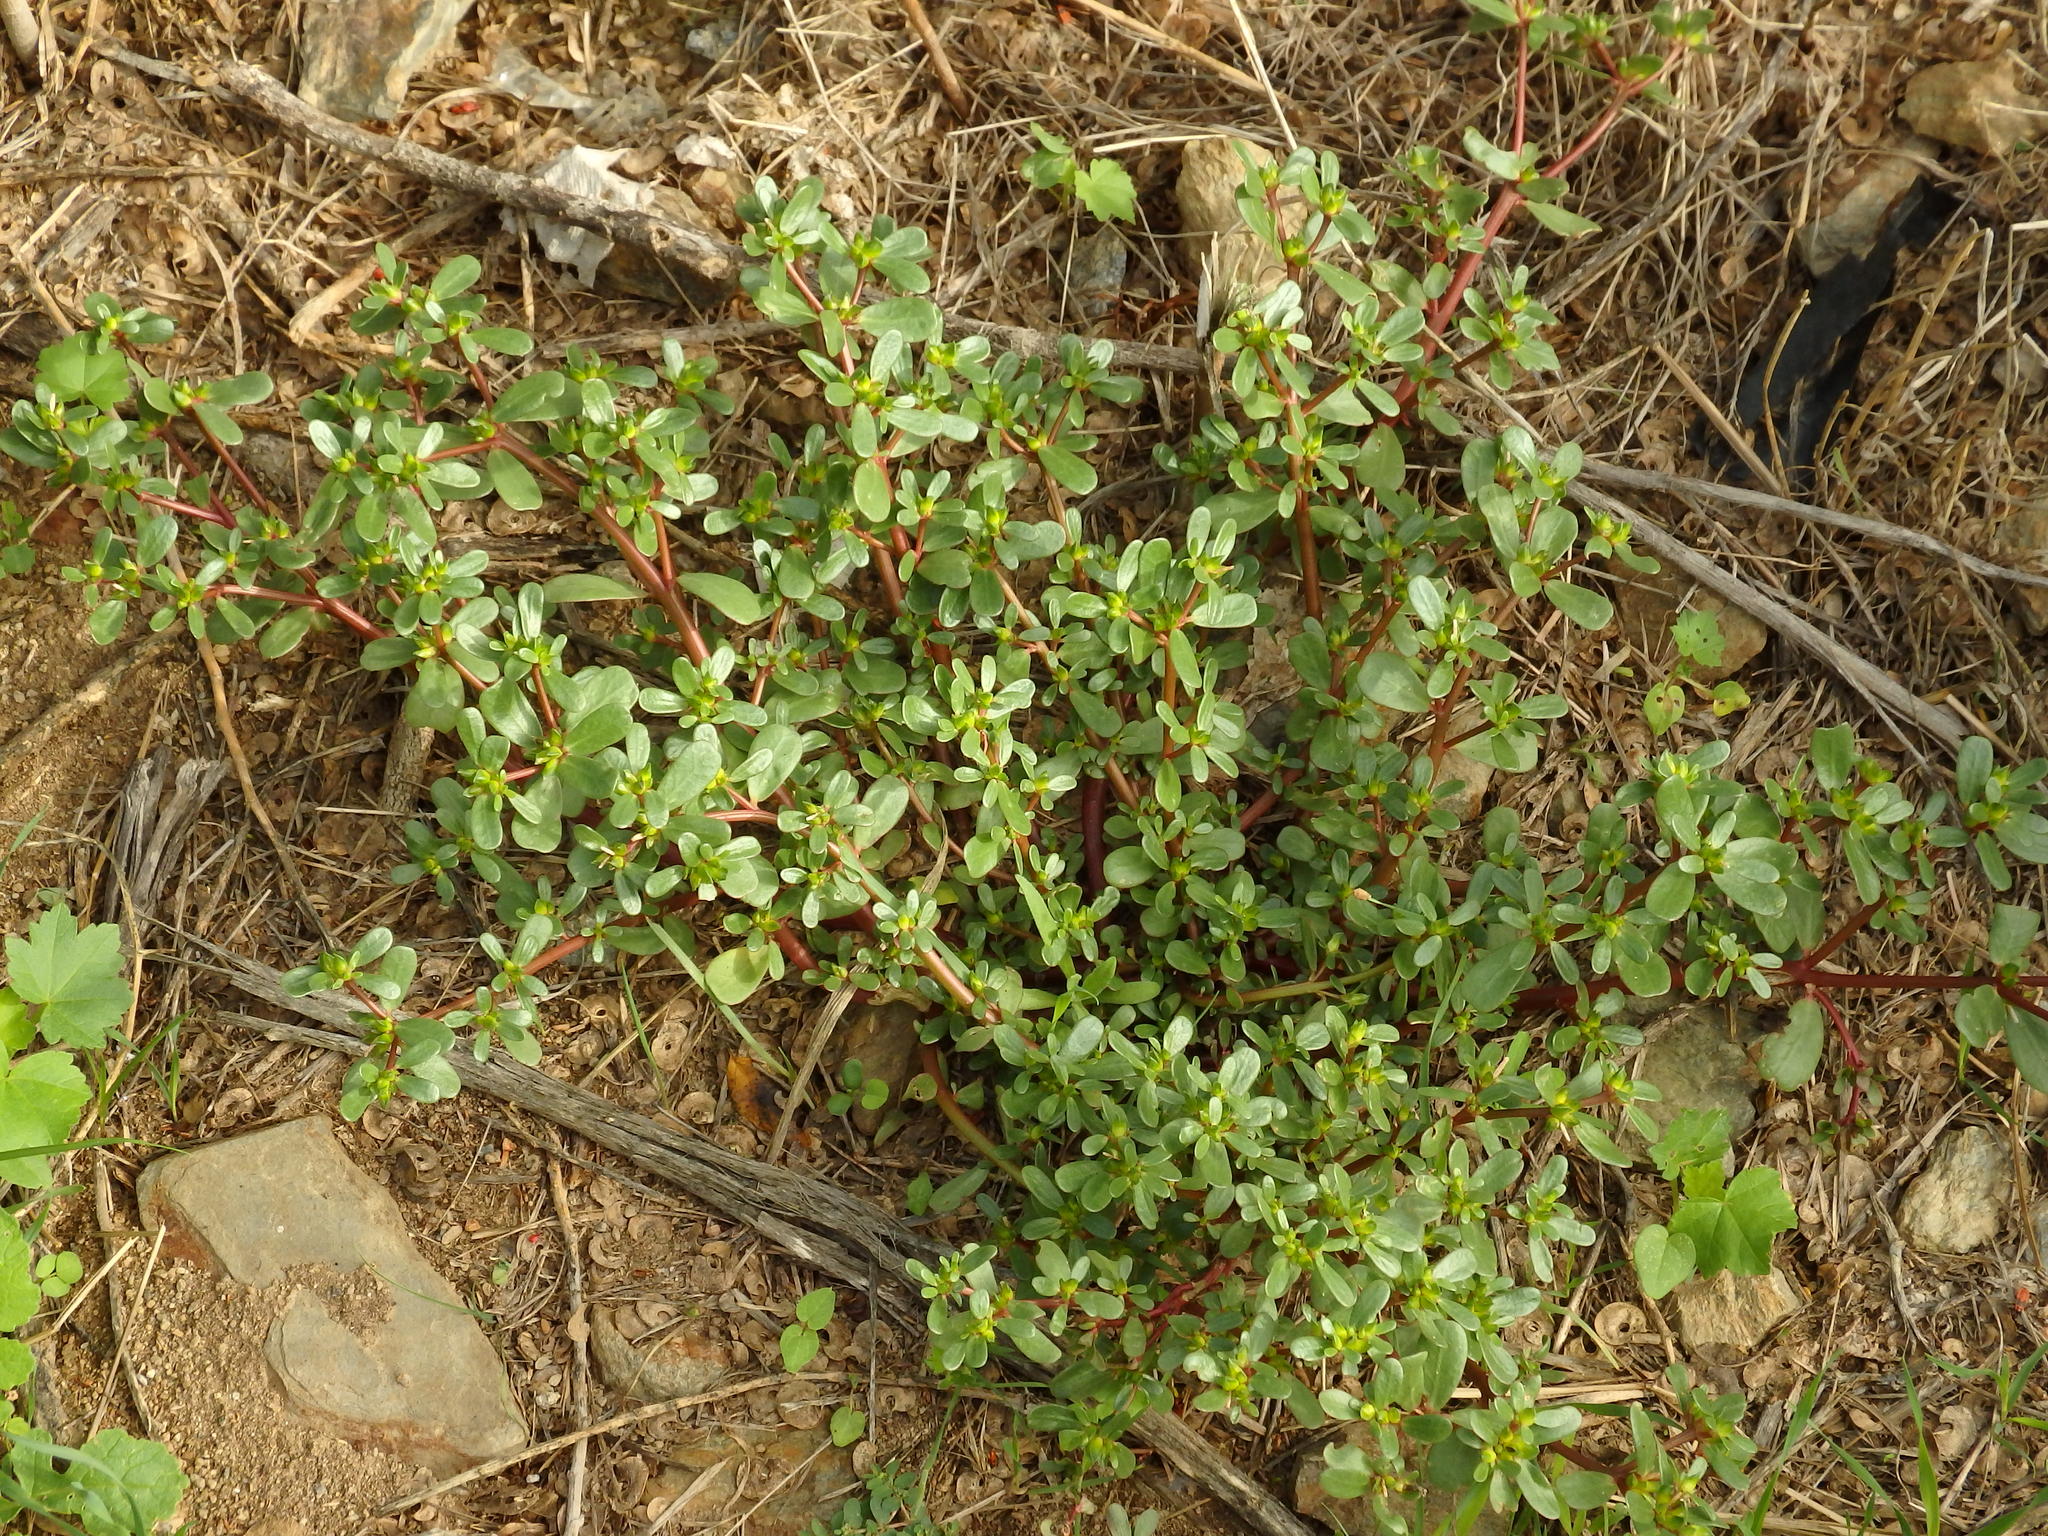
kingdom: Plantae
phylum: Tracheophyta
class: Magnoliopsida
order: Caryophyllales
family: Portulacaceae
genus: Portulaca
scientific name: Portulaca oleracea
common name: Common purslane
